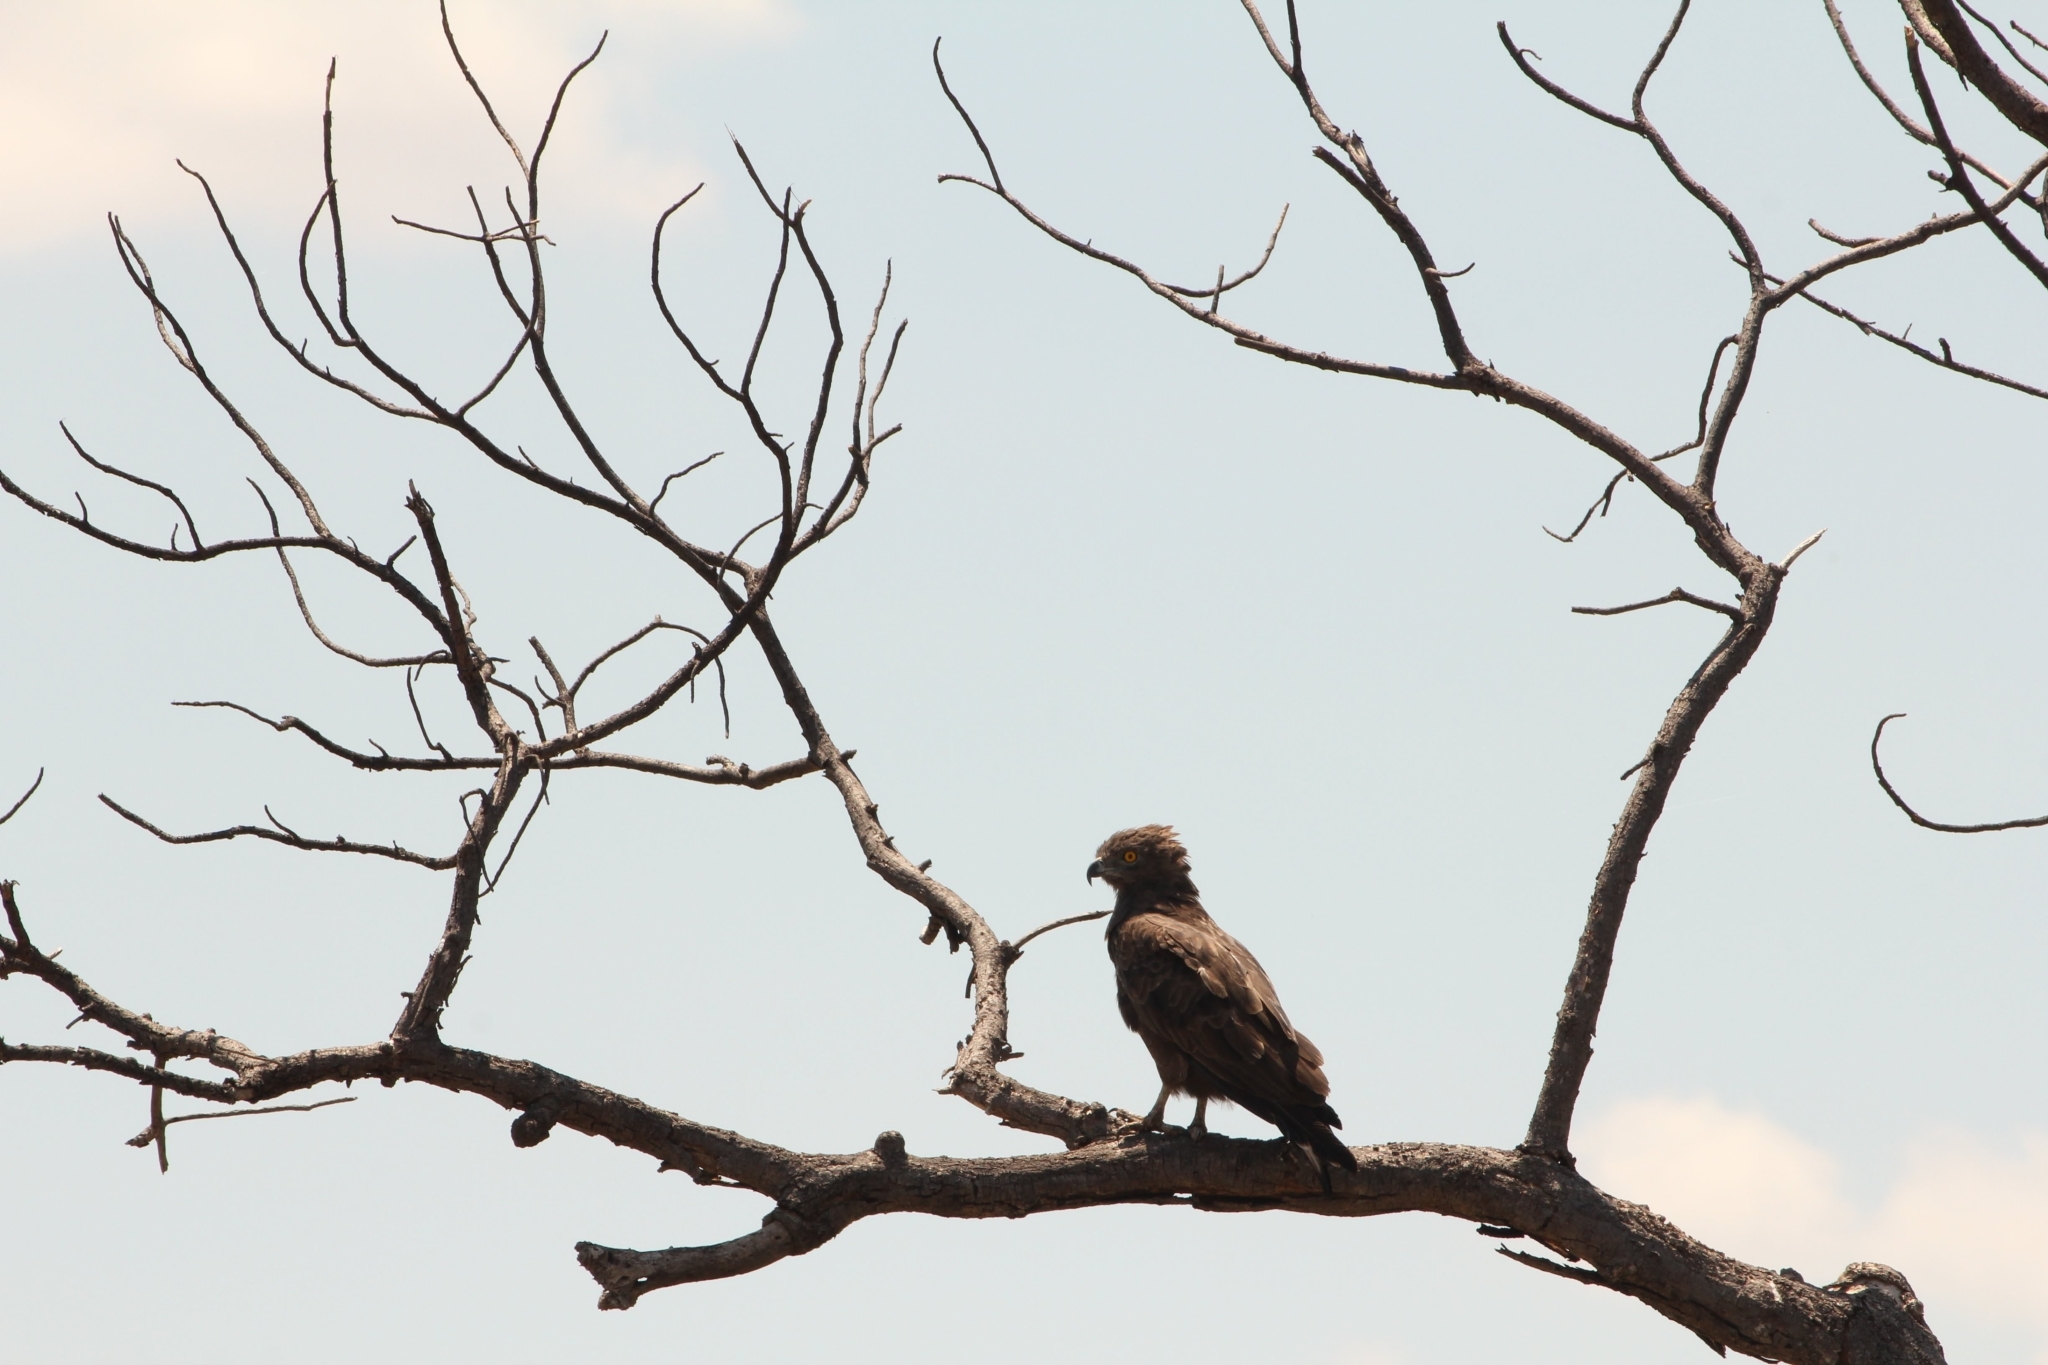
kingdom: Animalia
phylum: Chordata
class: Aves
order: Accipitriformes
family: Accipitridae
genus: Circaetus
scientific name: Circaetus cinereus
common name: Brown snake eagle
